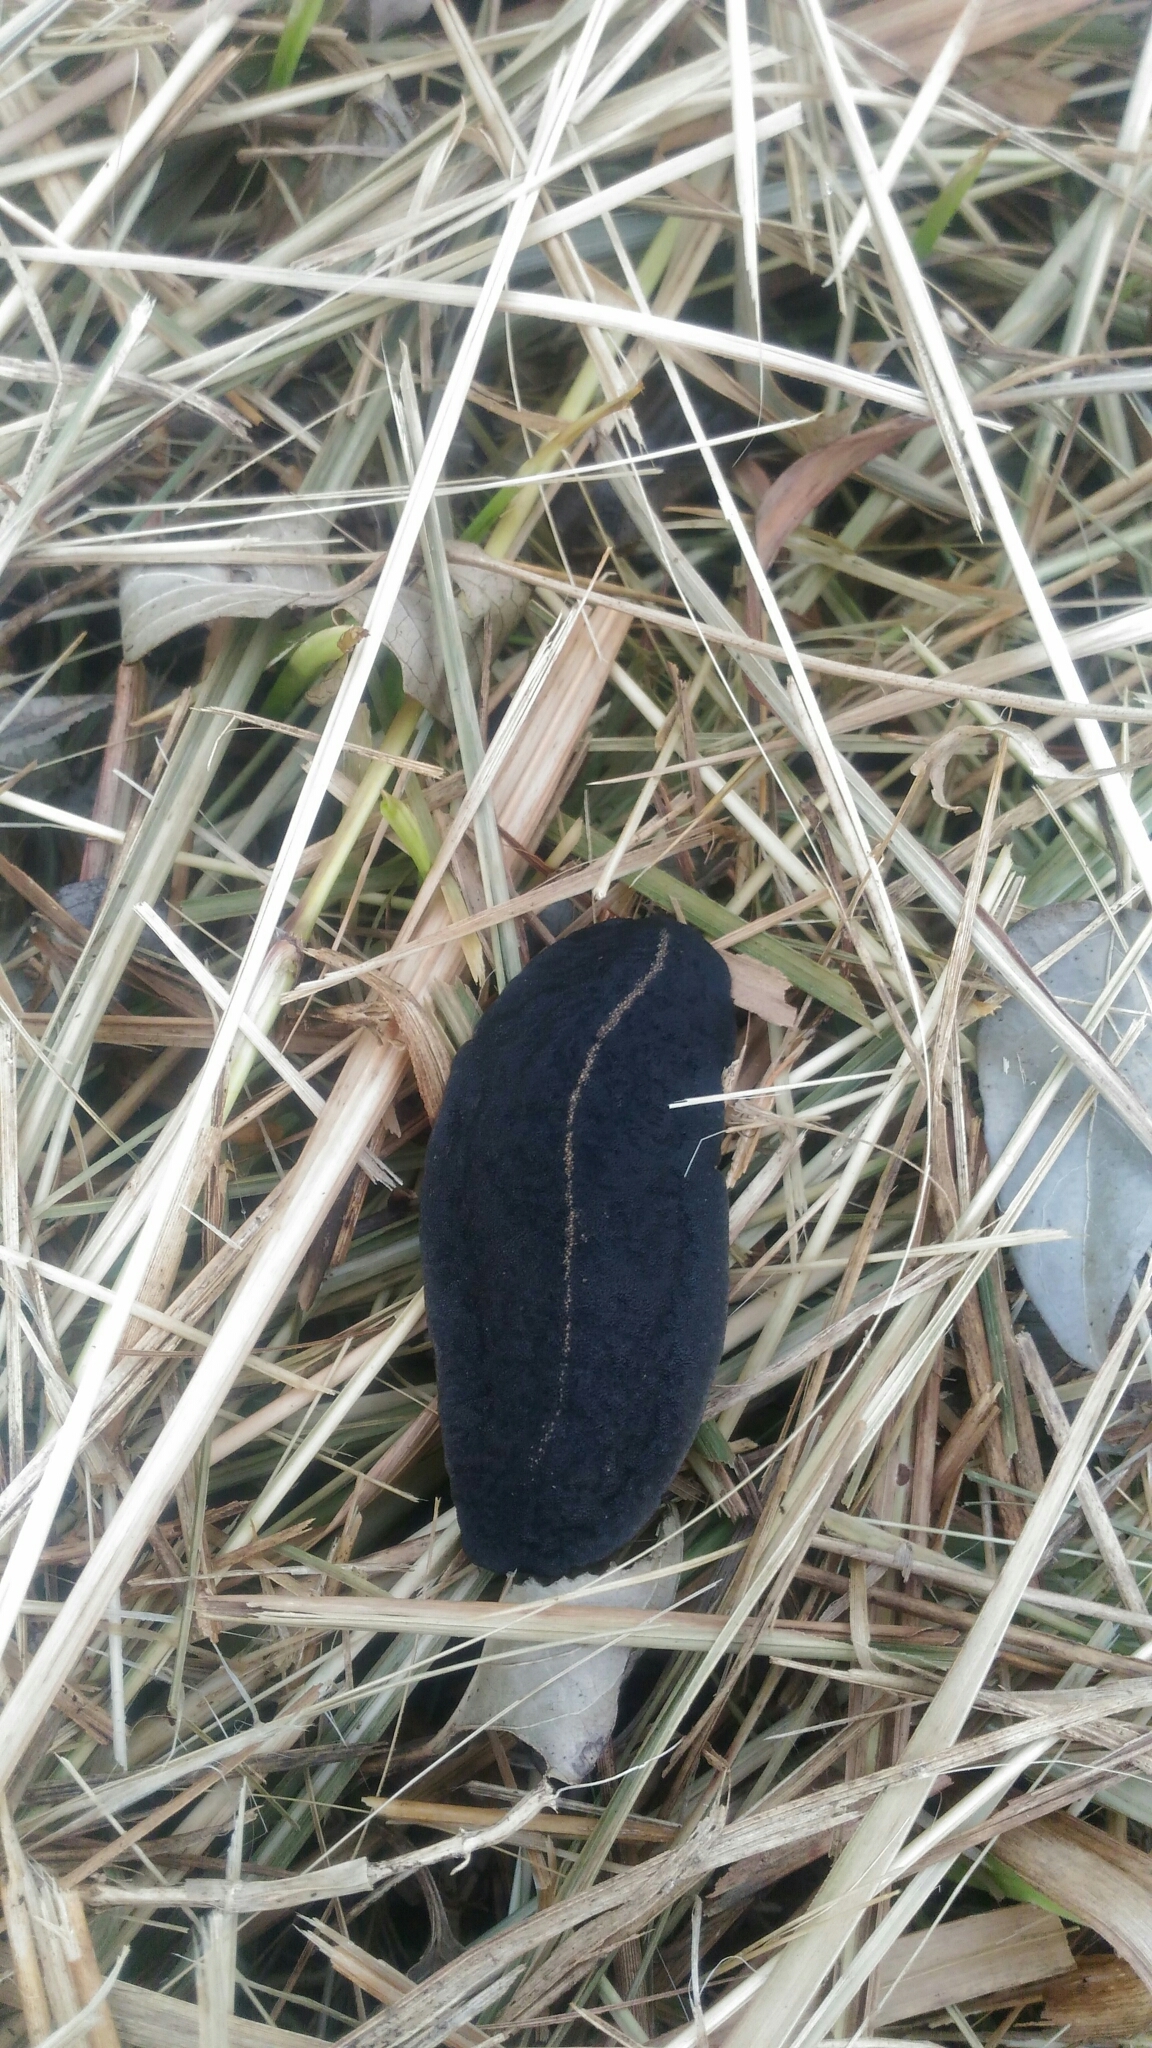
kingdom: Animalia
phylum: Mollusca
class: Gastropoda
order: Systellommatophora
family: Veronicellidae
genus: Laevicaulis
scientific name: Laevicaulis alte
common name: Tropical leatherleaf
